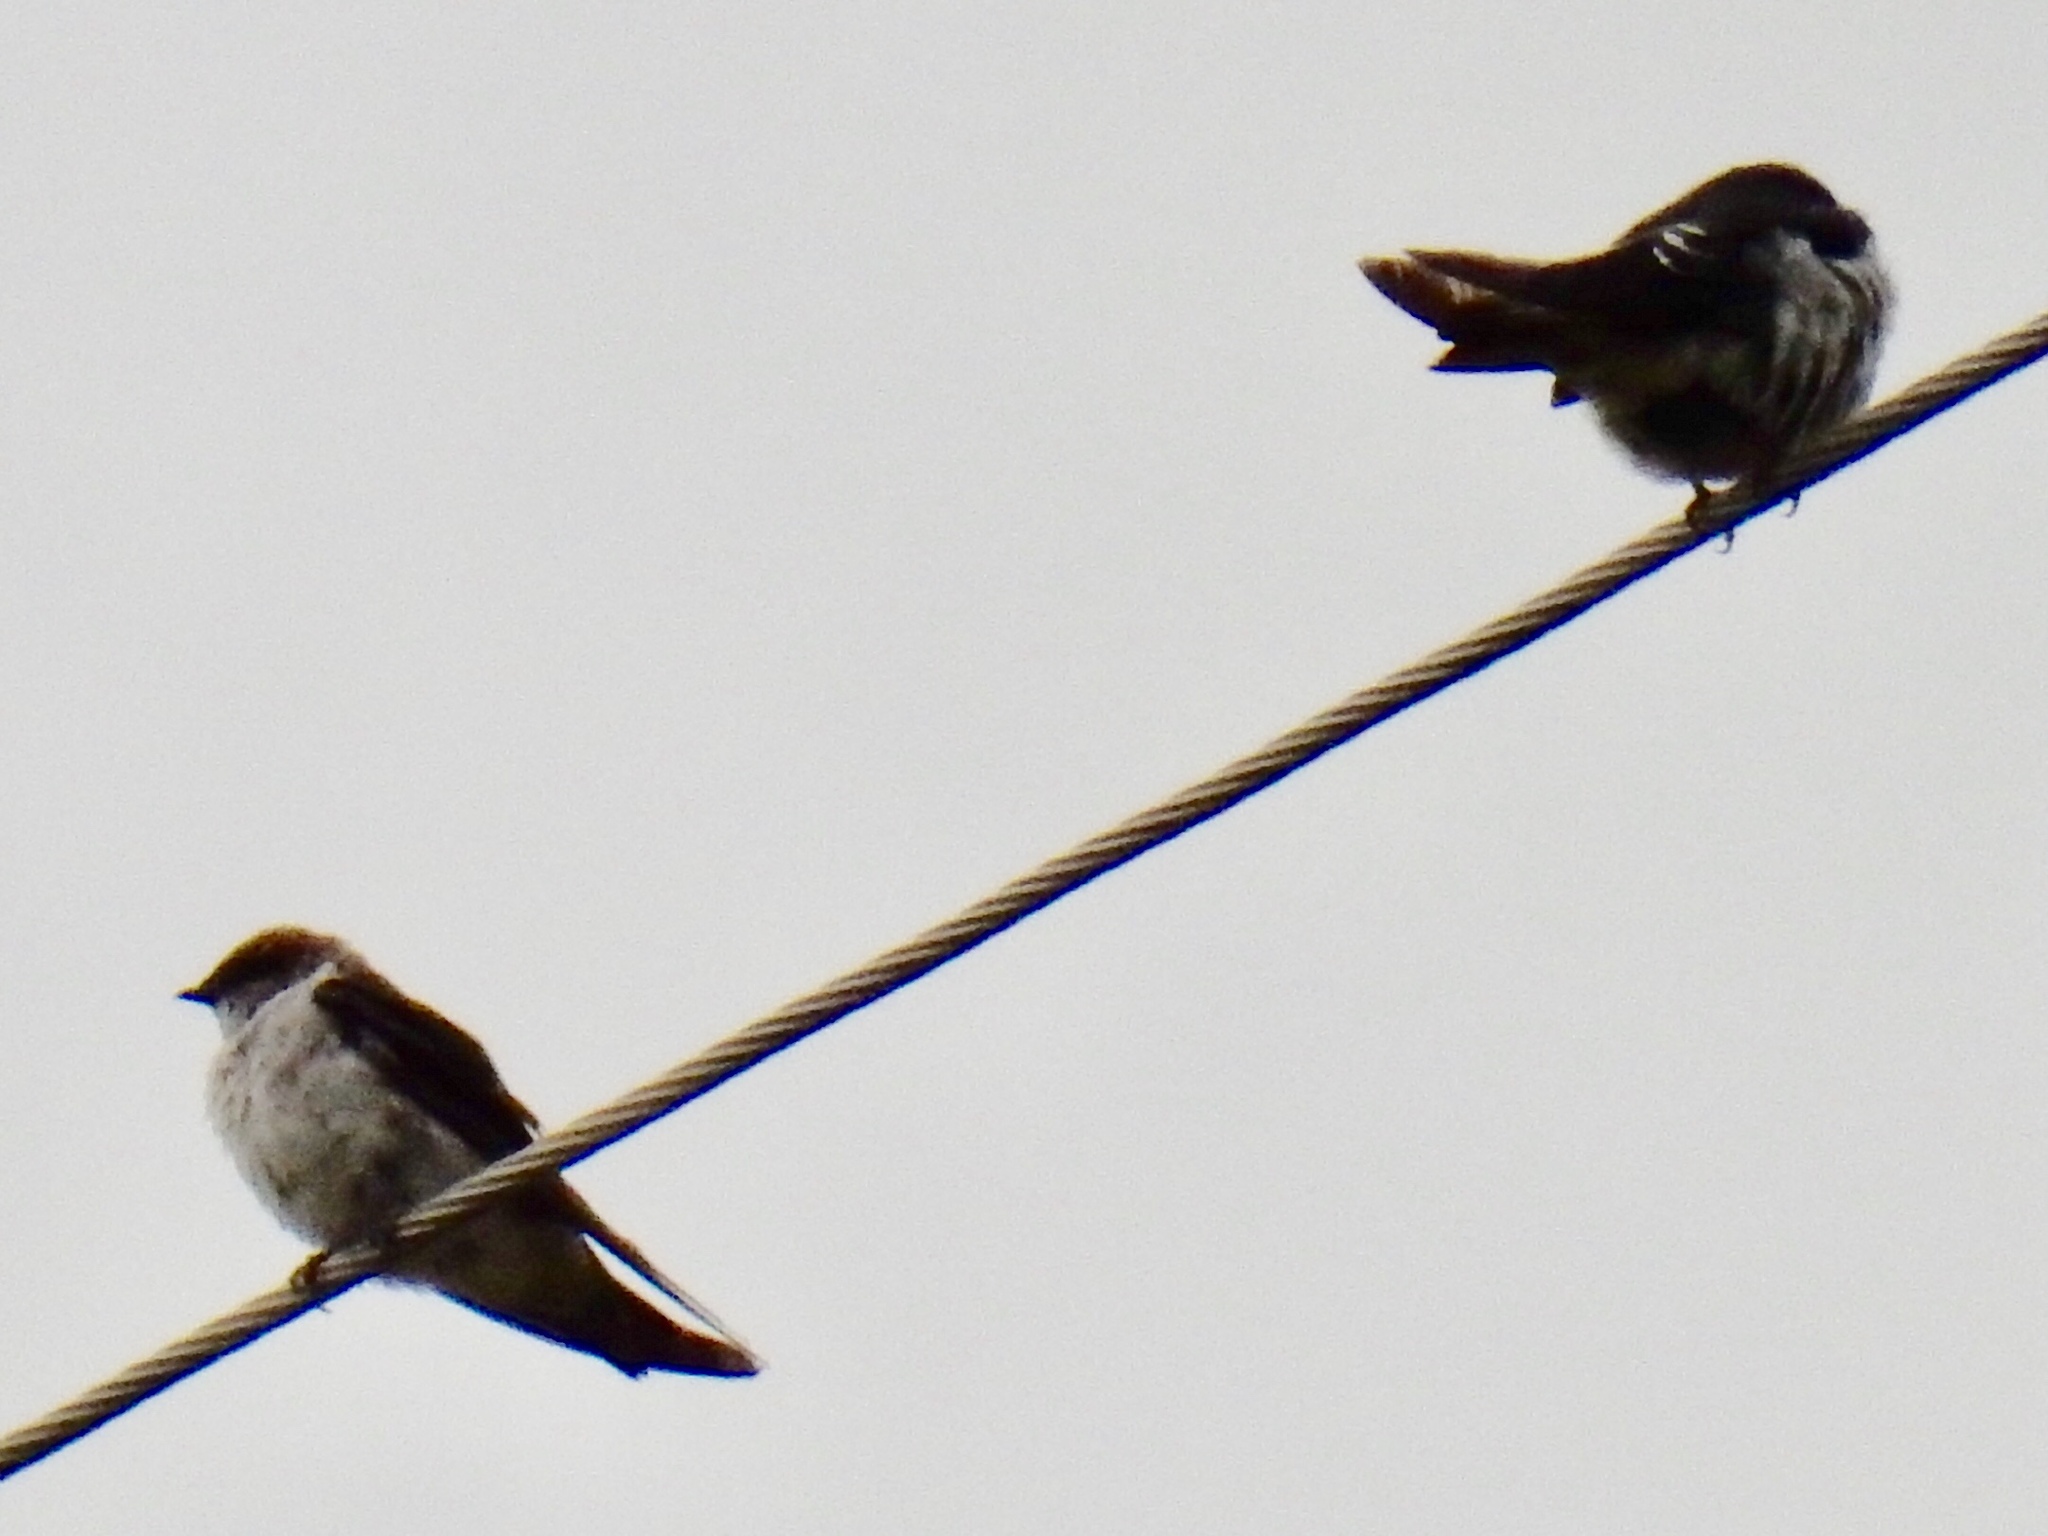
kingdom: Animalia
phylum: Chordata
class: Aves
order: Passeriformes
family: Hirundinidae
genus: Tachycineta
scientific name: Tachycineta thalassina
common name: Violet-green swallow
